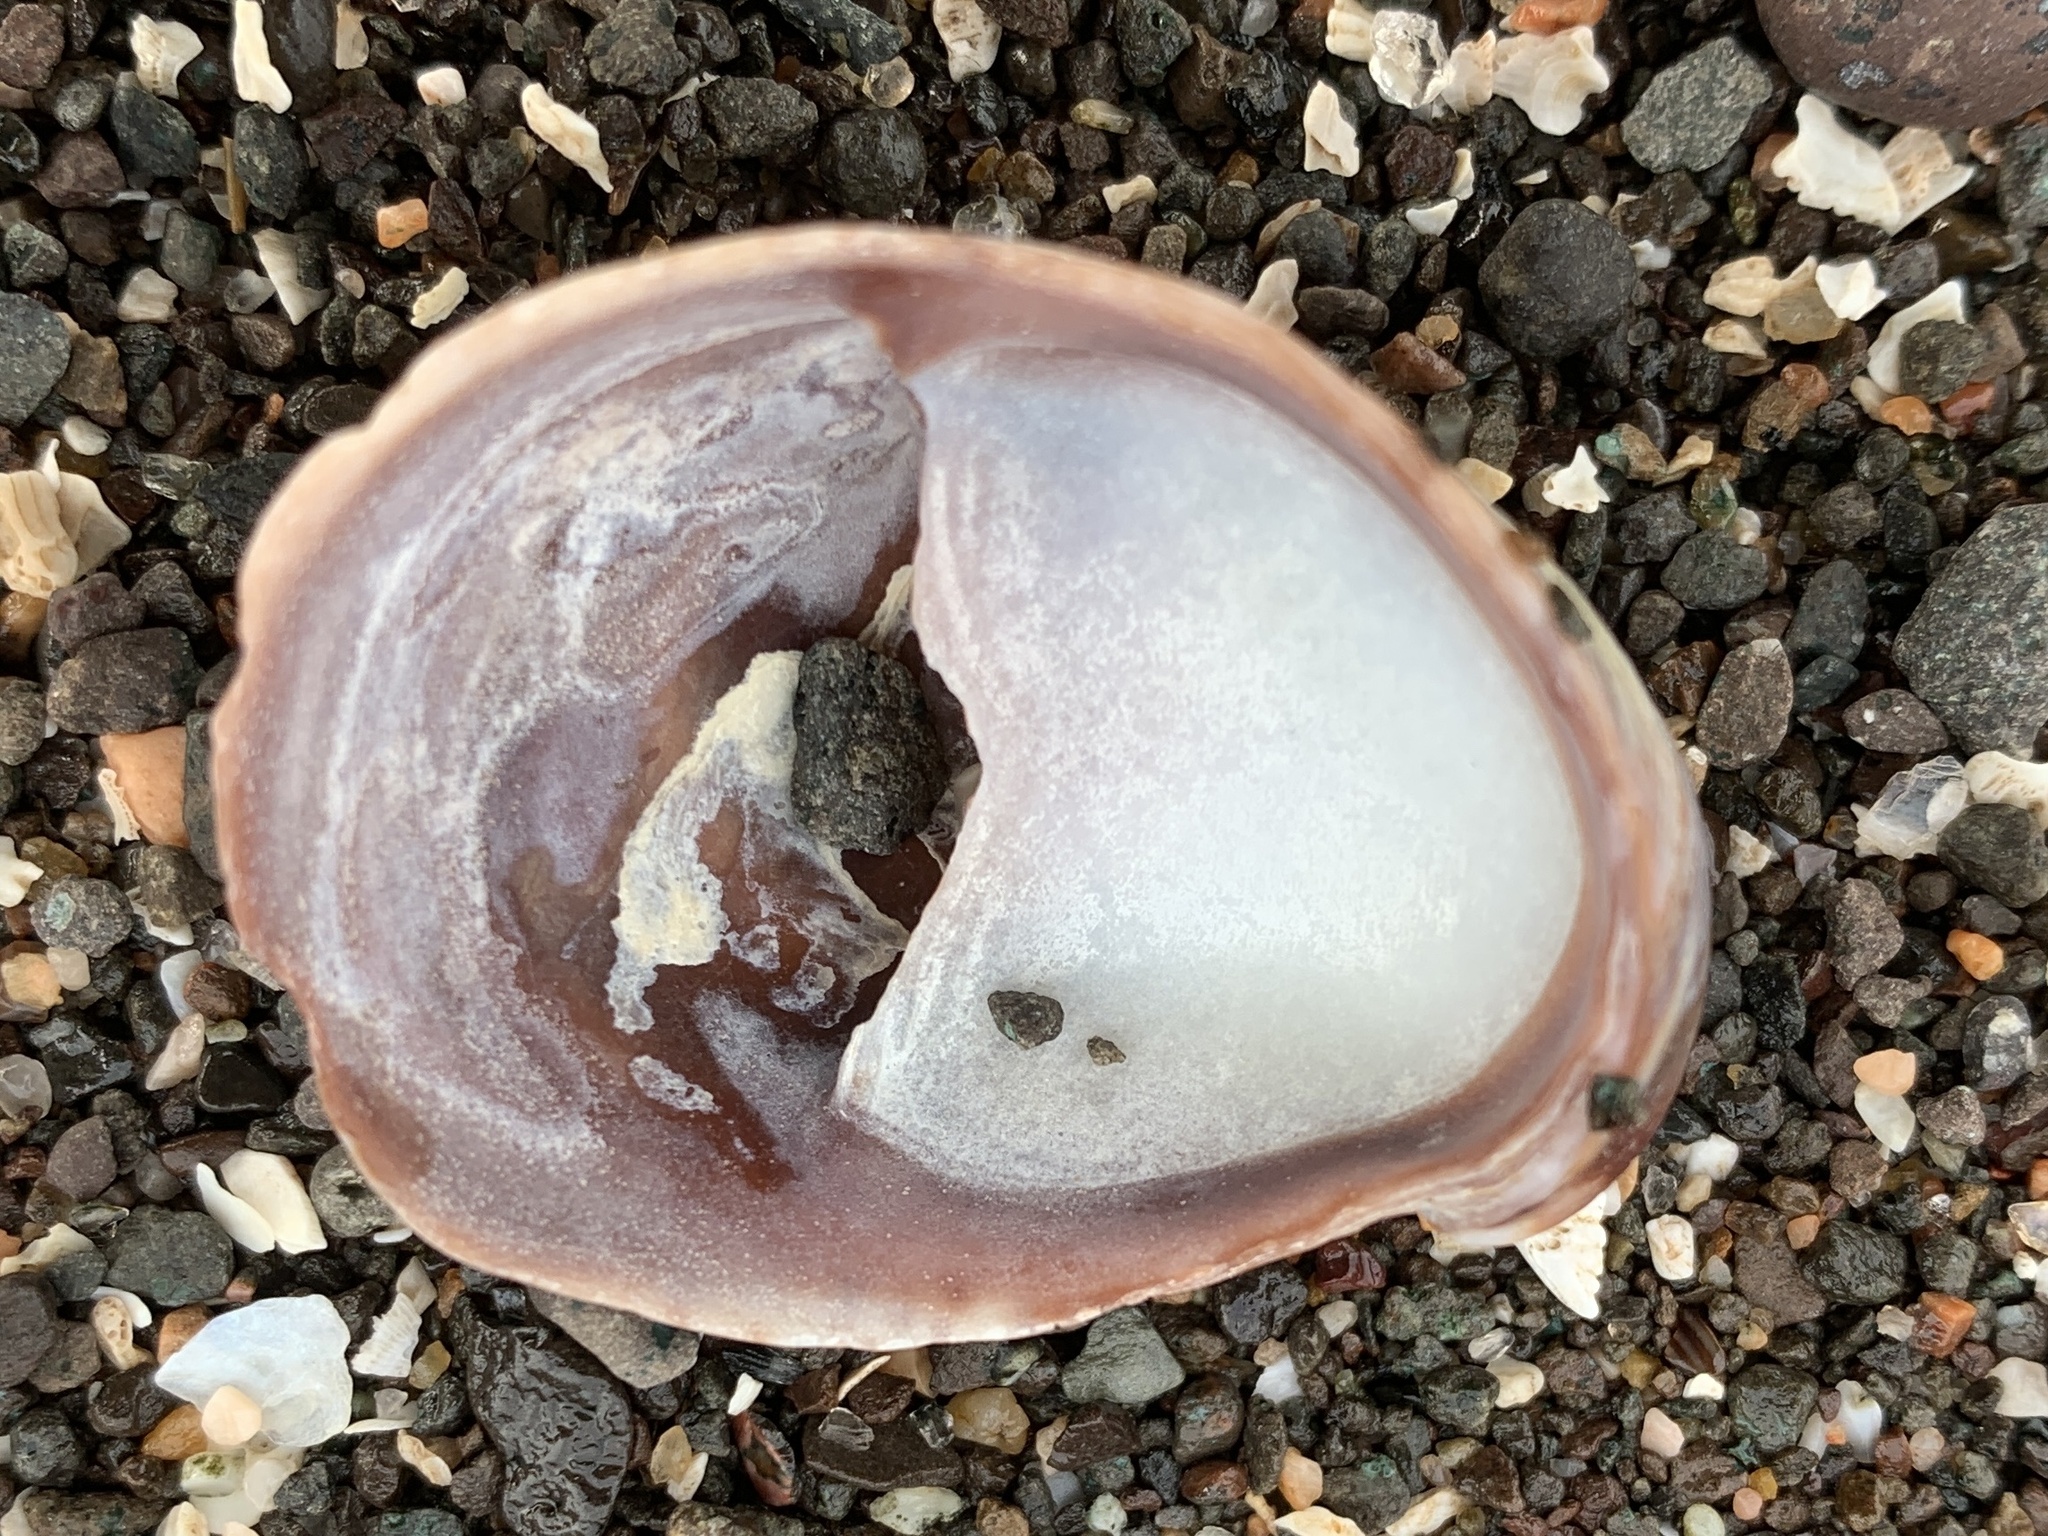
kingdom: Animalia
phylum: Mollusca
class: Gastropoda
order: Littorinimorpha
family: Calyptraeidae
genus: Crepidula
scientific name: Crepidula fornicata
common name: Slipper limpet
